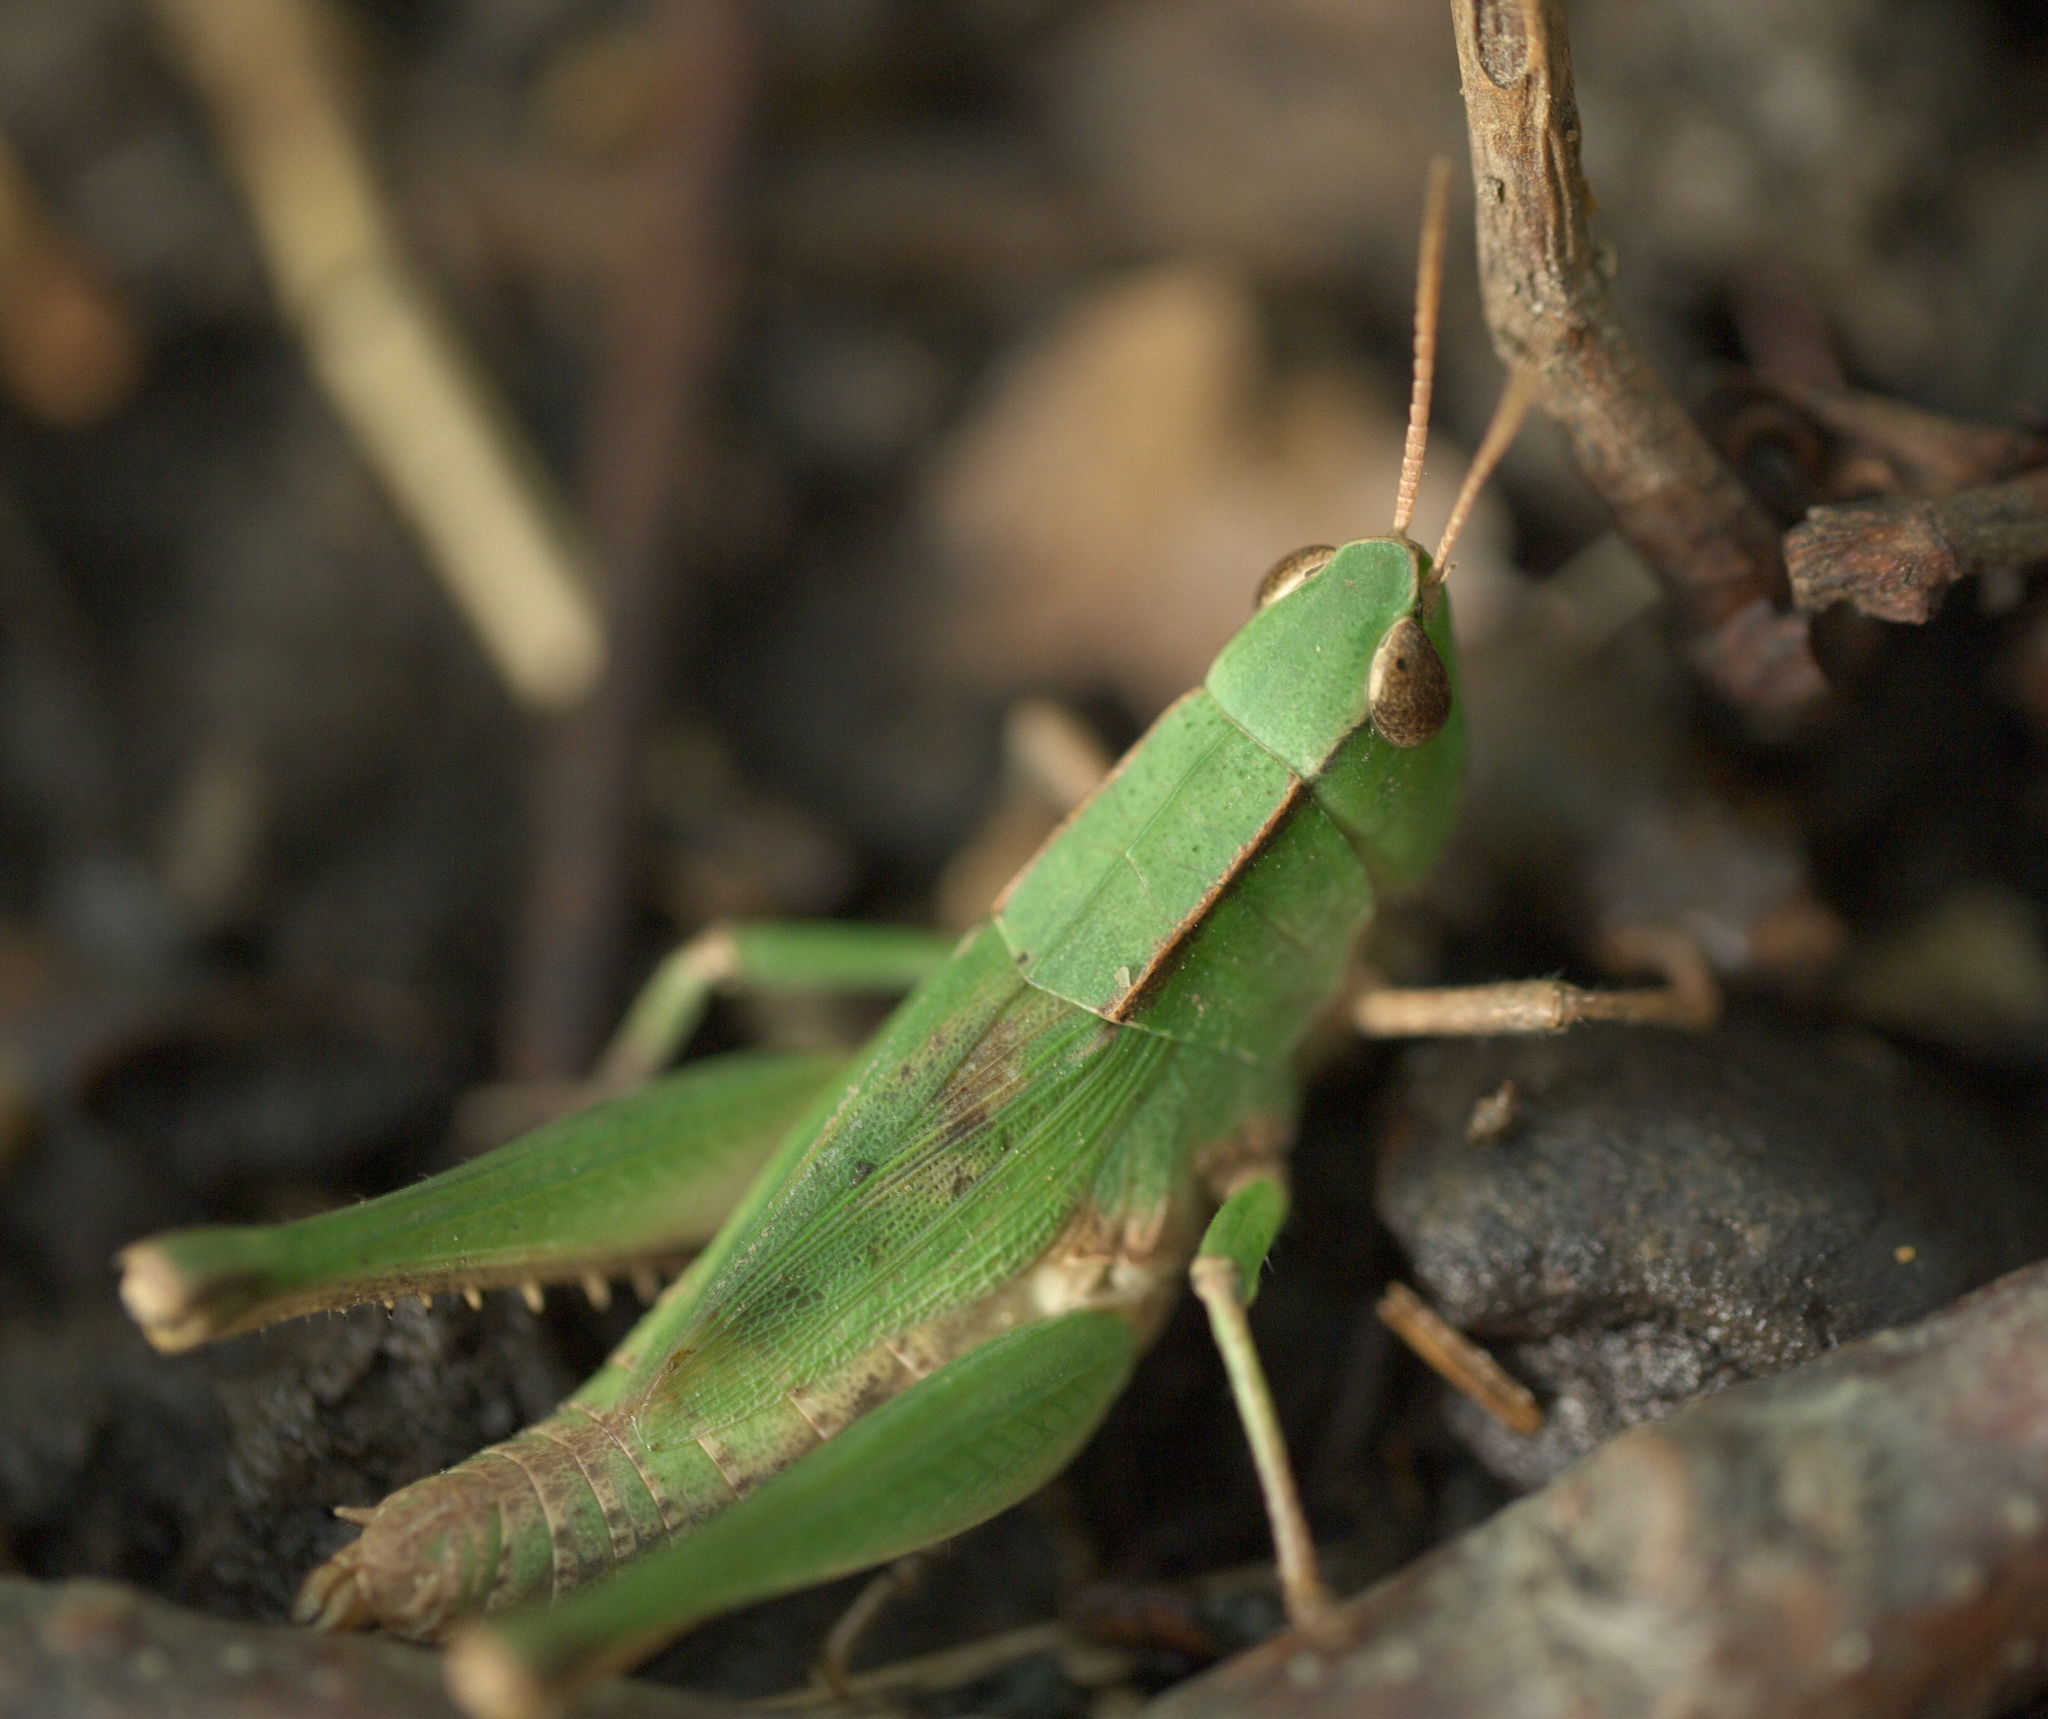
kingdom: Animalia
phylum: Arthropoda
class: Insecta
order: Orthoptera
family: Acrididae
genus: Dichromorpha
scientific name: Dichromorpha viridis
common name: Short-winged green grasshopper
